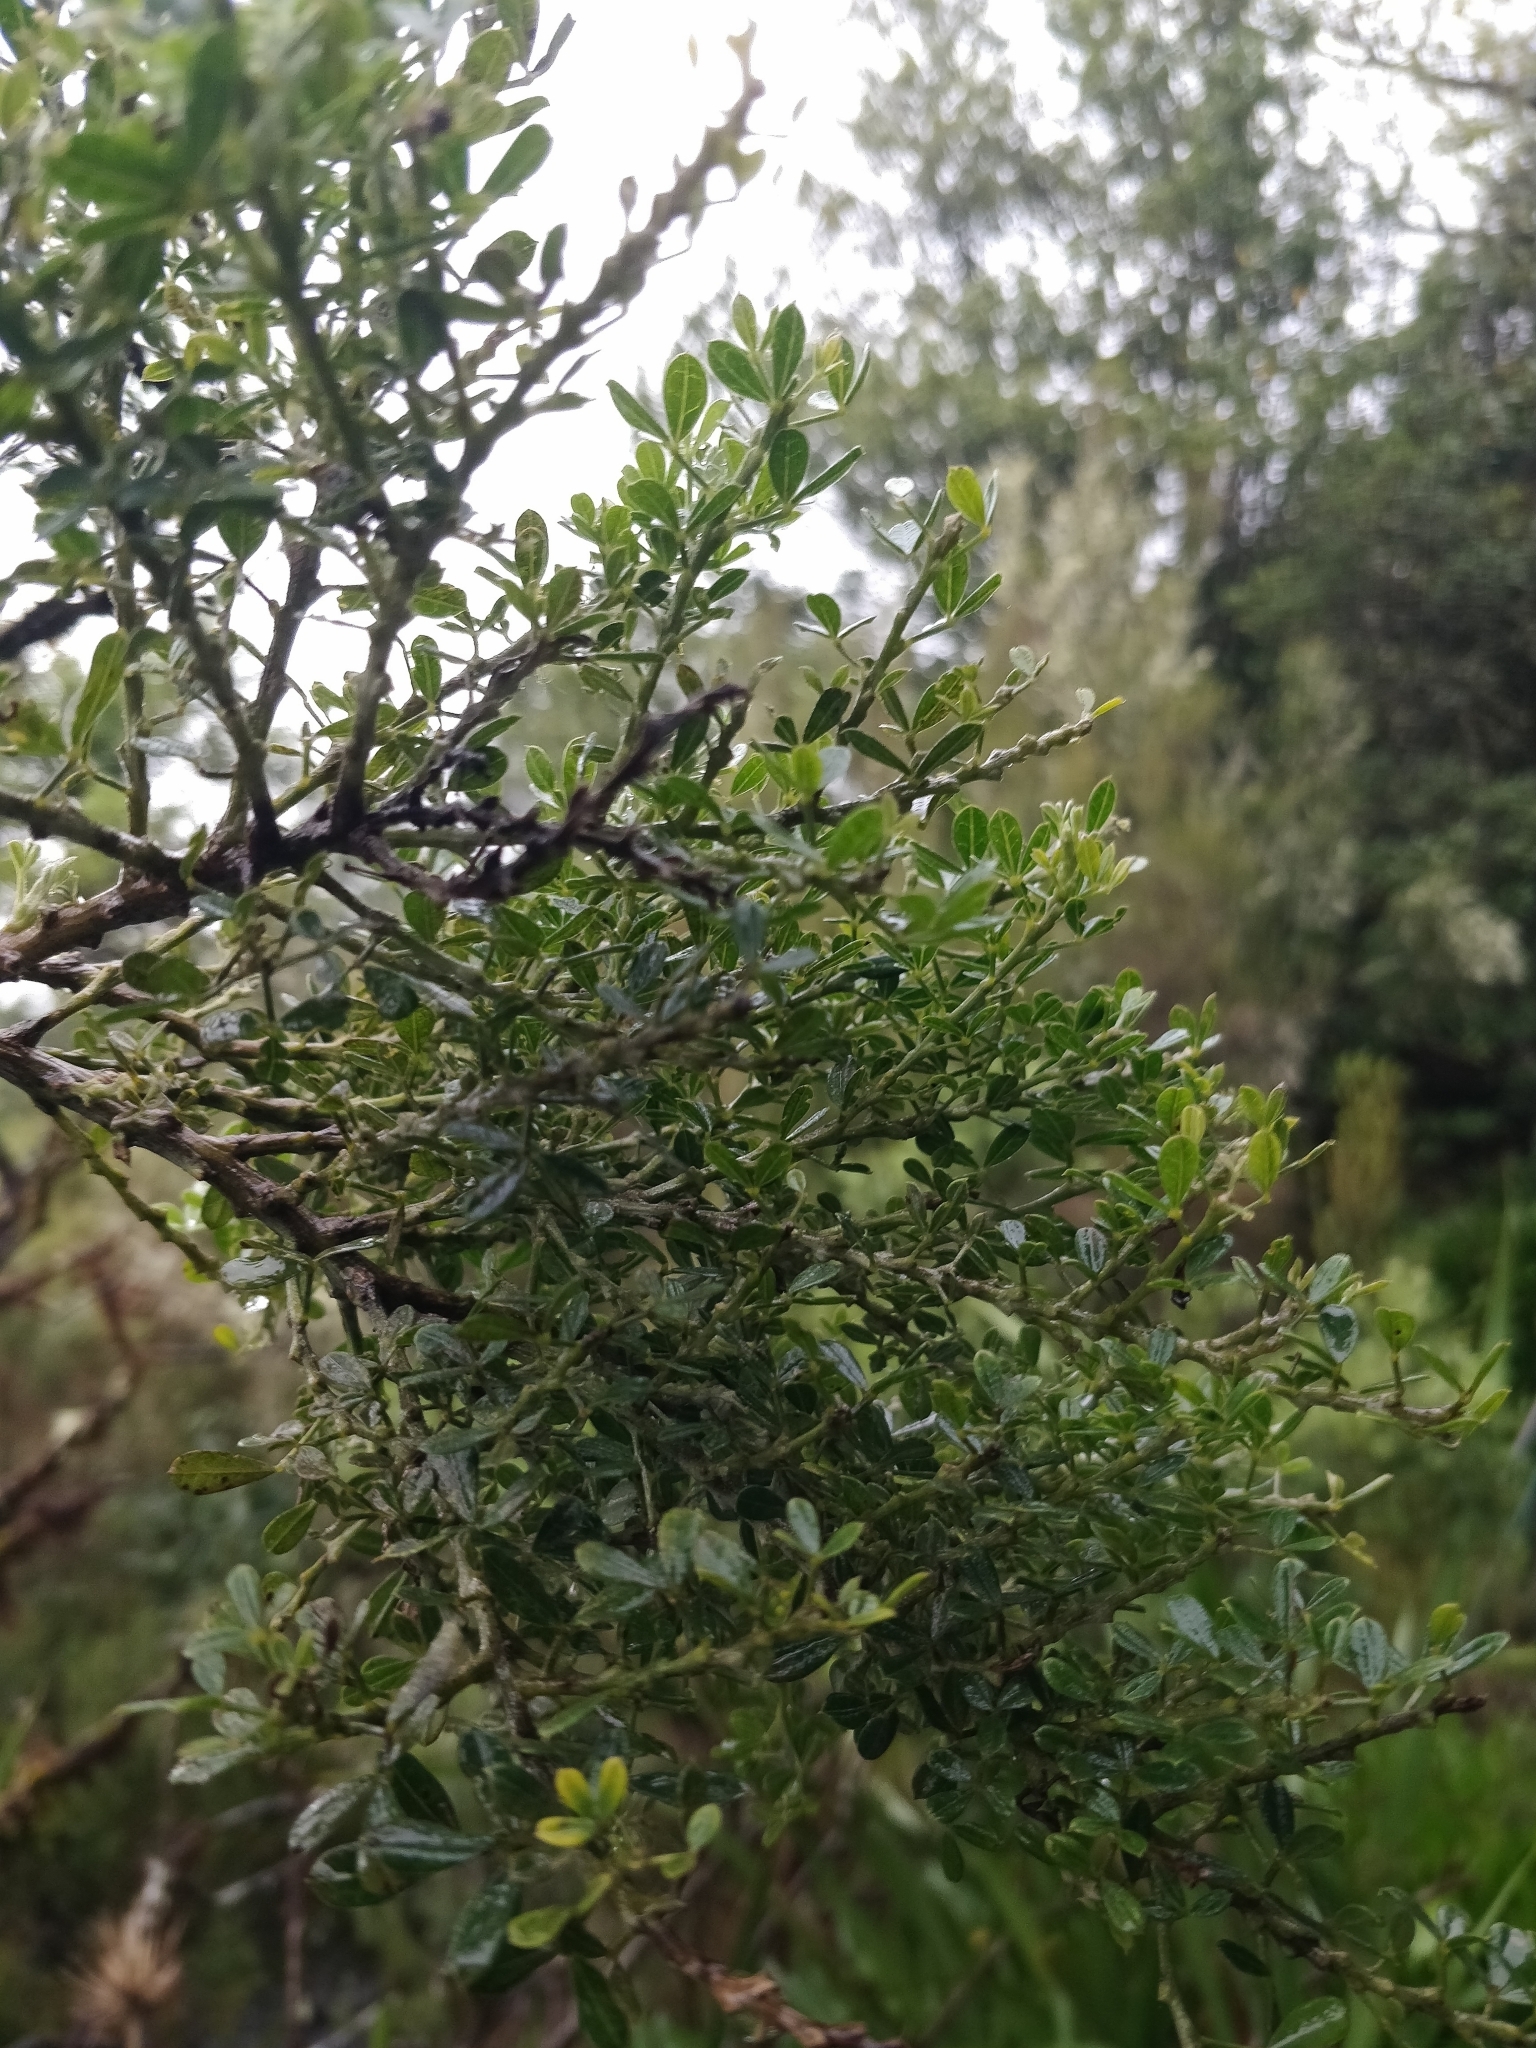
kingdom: Plantae
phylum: Tracheophyta
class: Magnoliopsida
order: Fabales
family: Fabaceae
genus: Genista
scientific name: Genista maderensis
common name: Madeira dyer's greenweed
